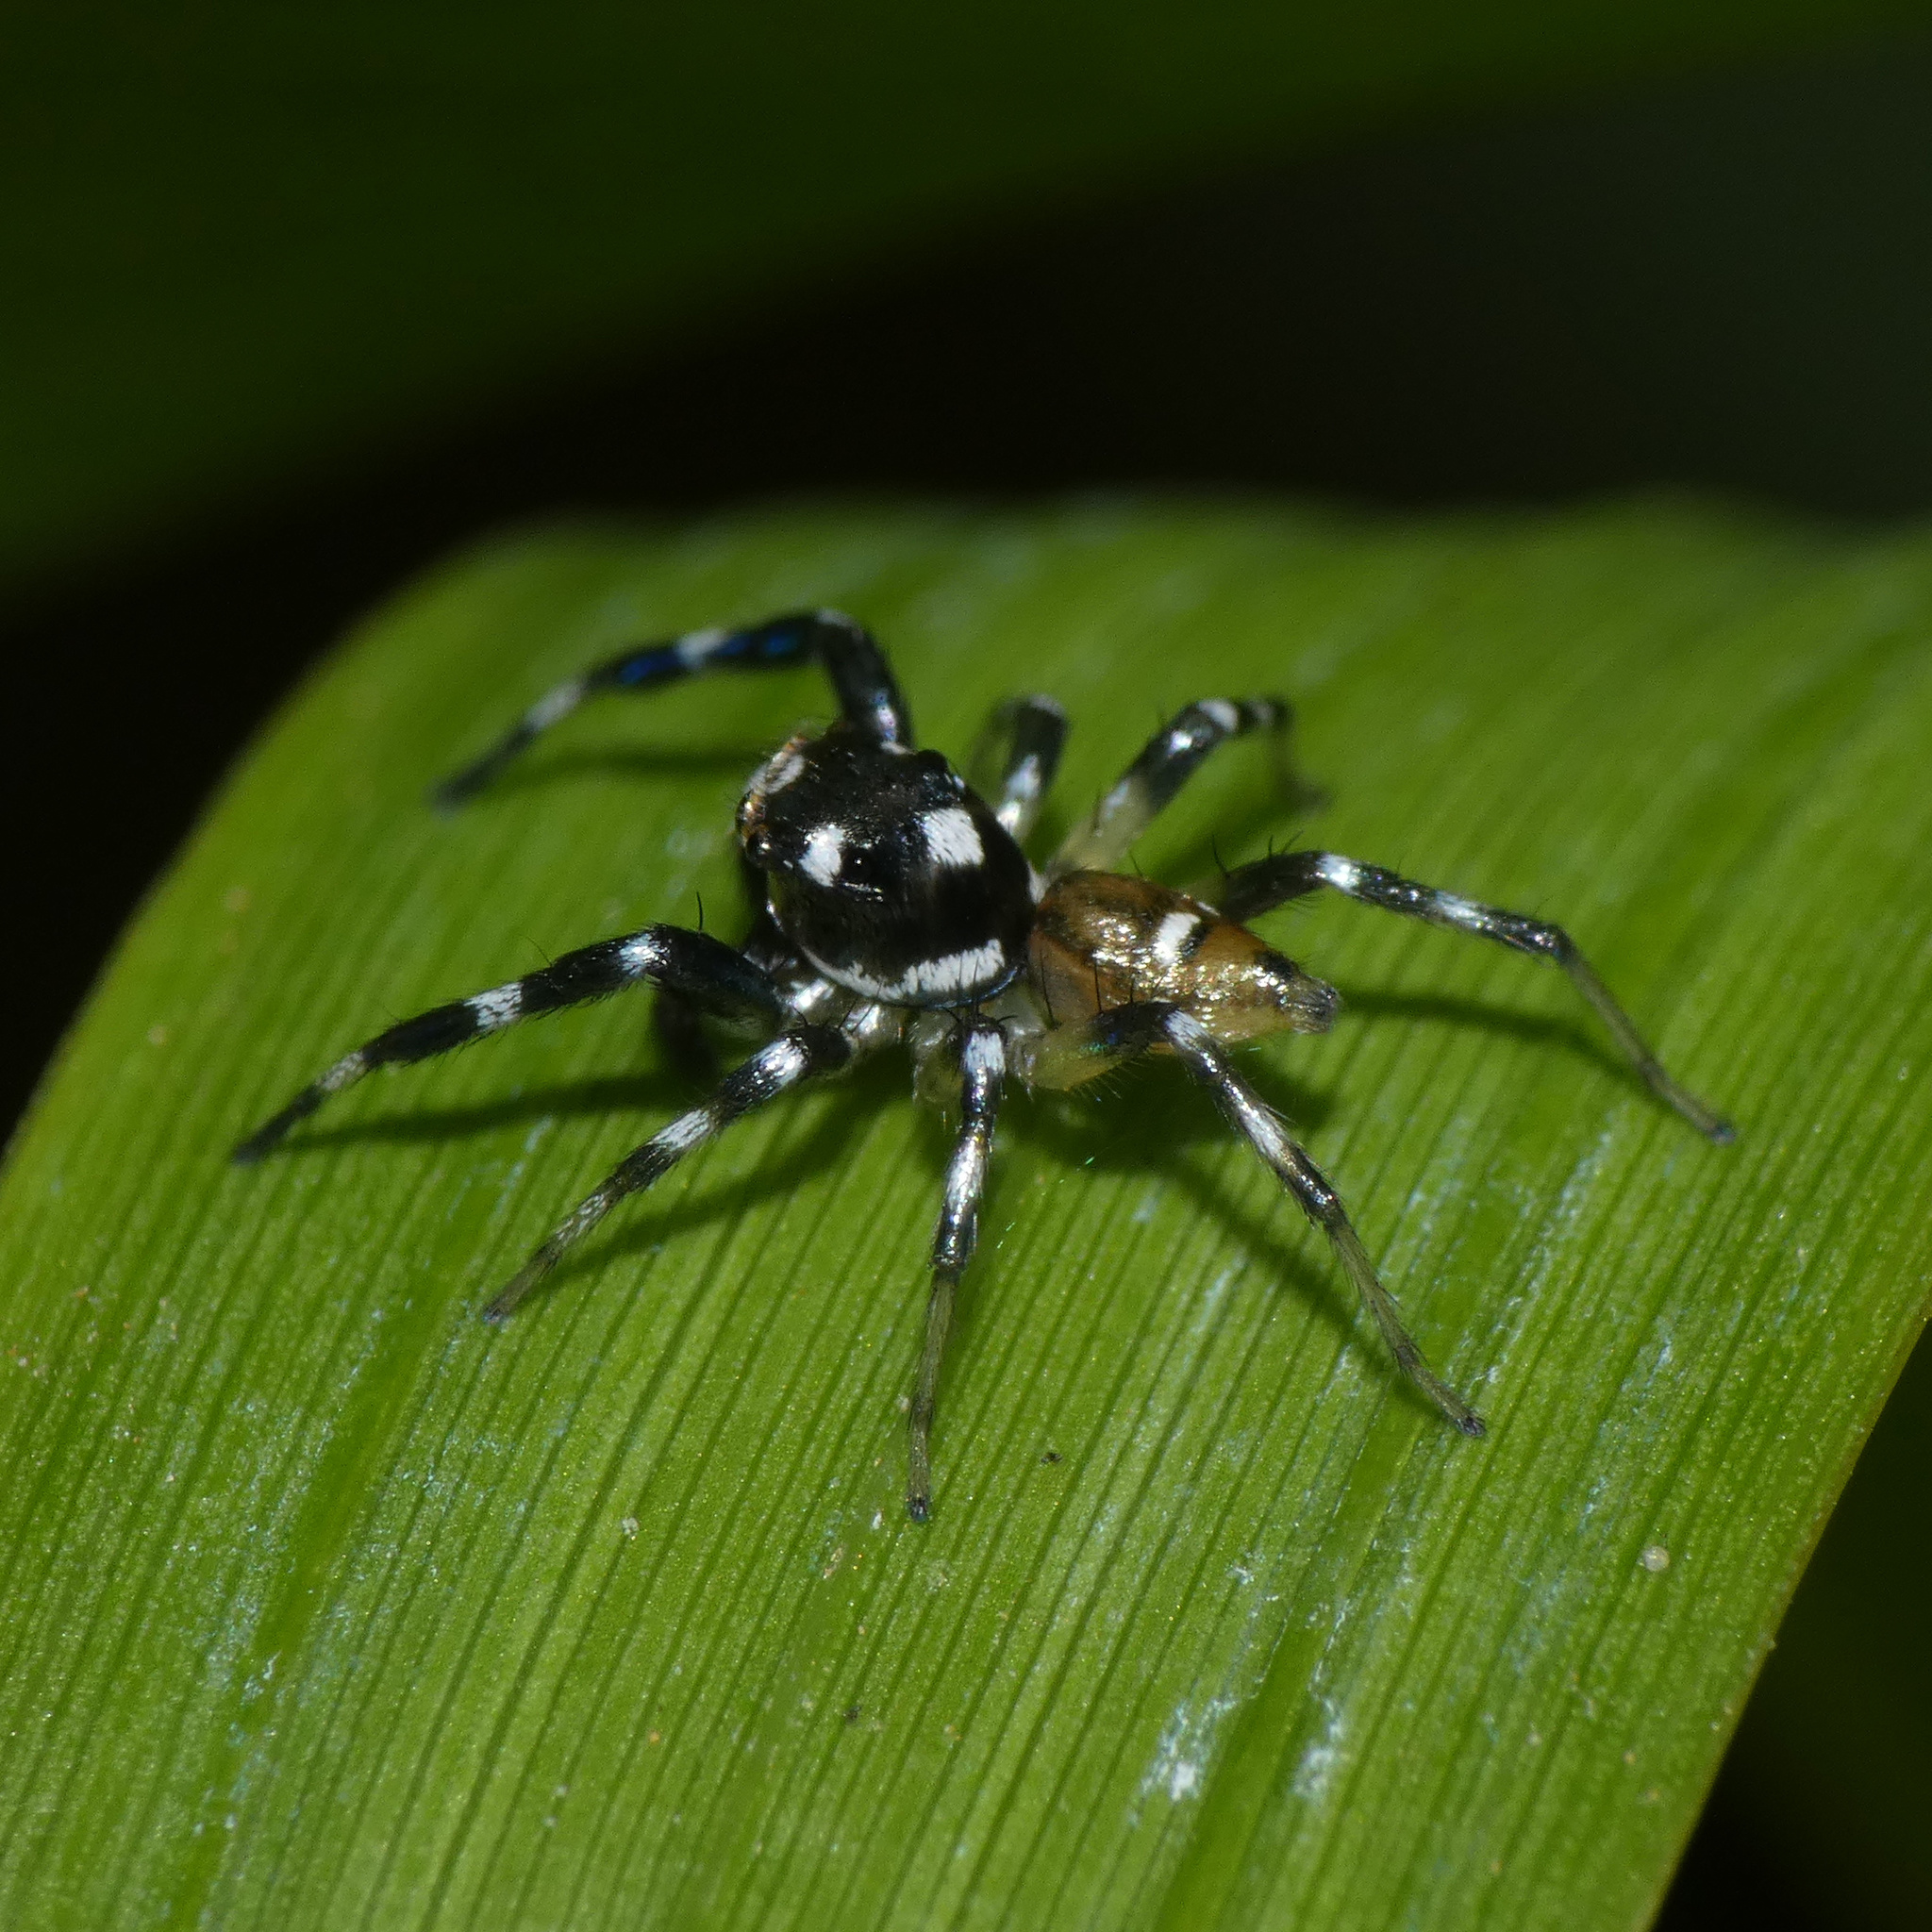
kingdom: Animalia
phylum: Arthropoda
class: Arachnida
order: Araneae
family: Salticidae
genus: Phintella
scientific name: Phintella aequipes
